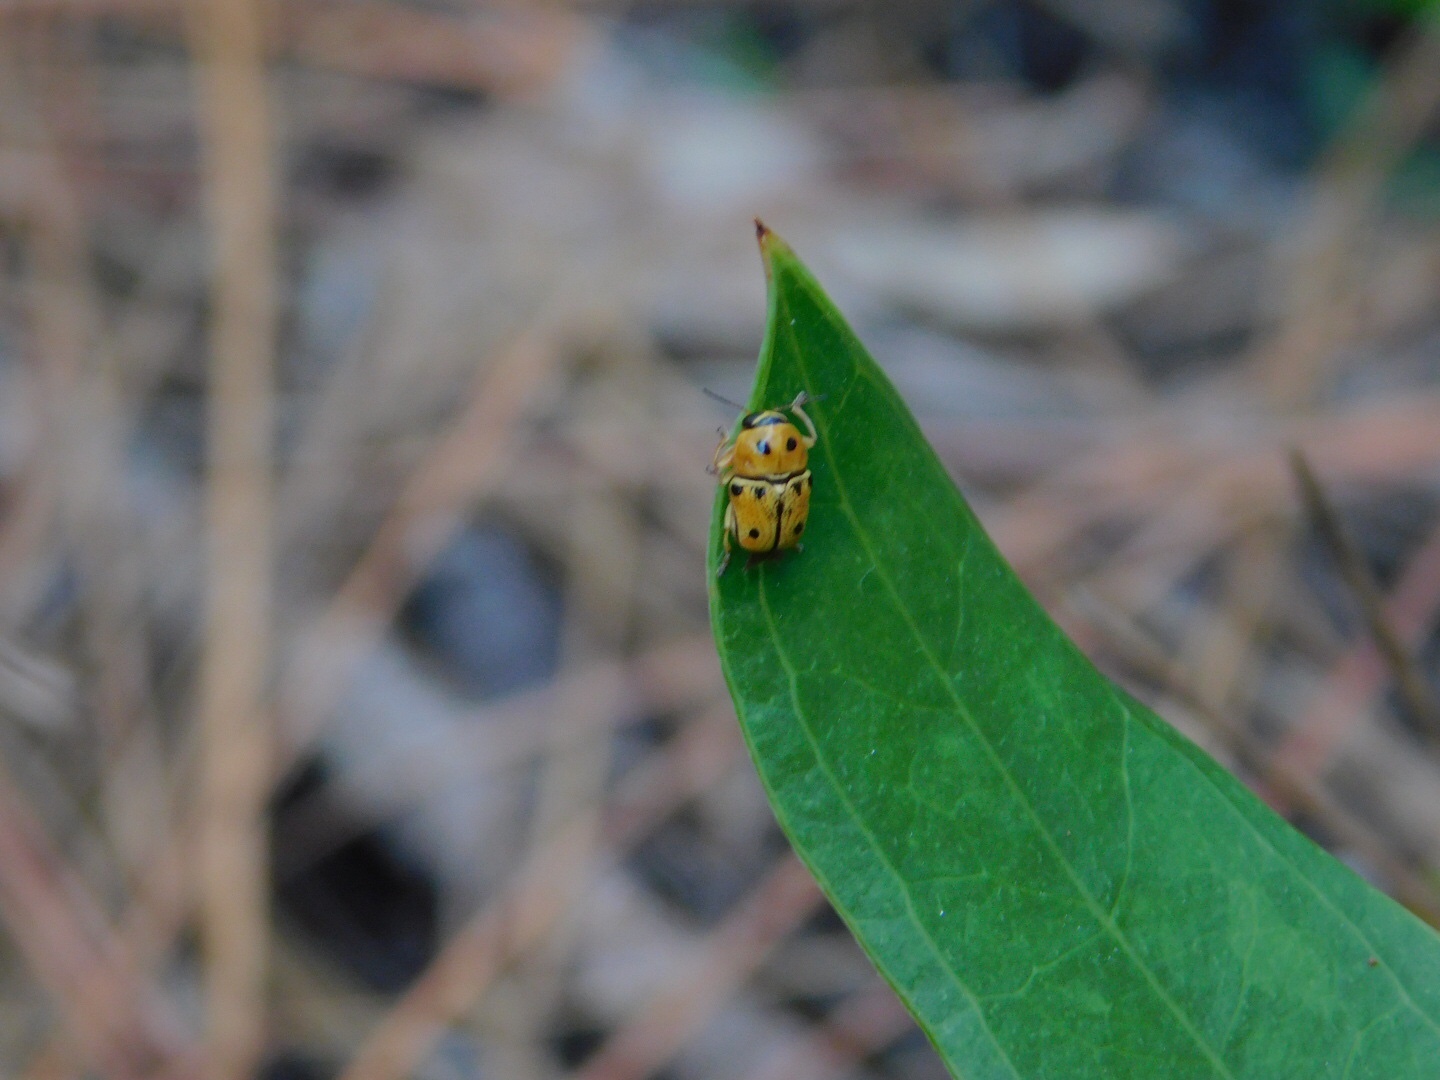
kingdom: Animalia
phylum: Arthropoda
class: Insecta
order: Coleoptera
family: Chrysomelidae
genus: Griburius
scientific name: Griburius larvatus
